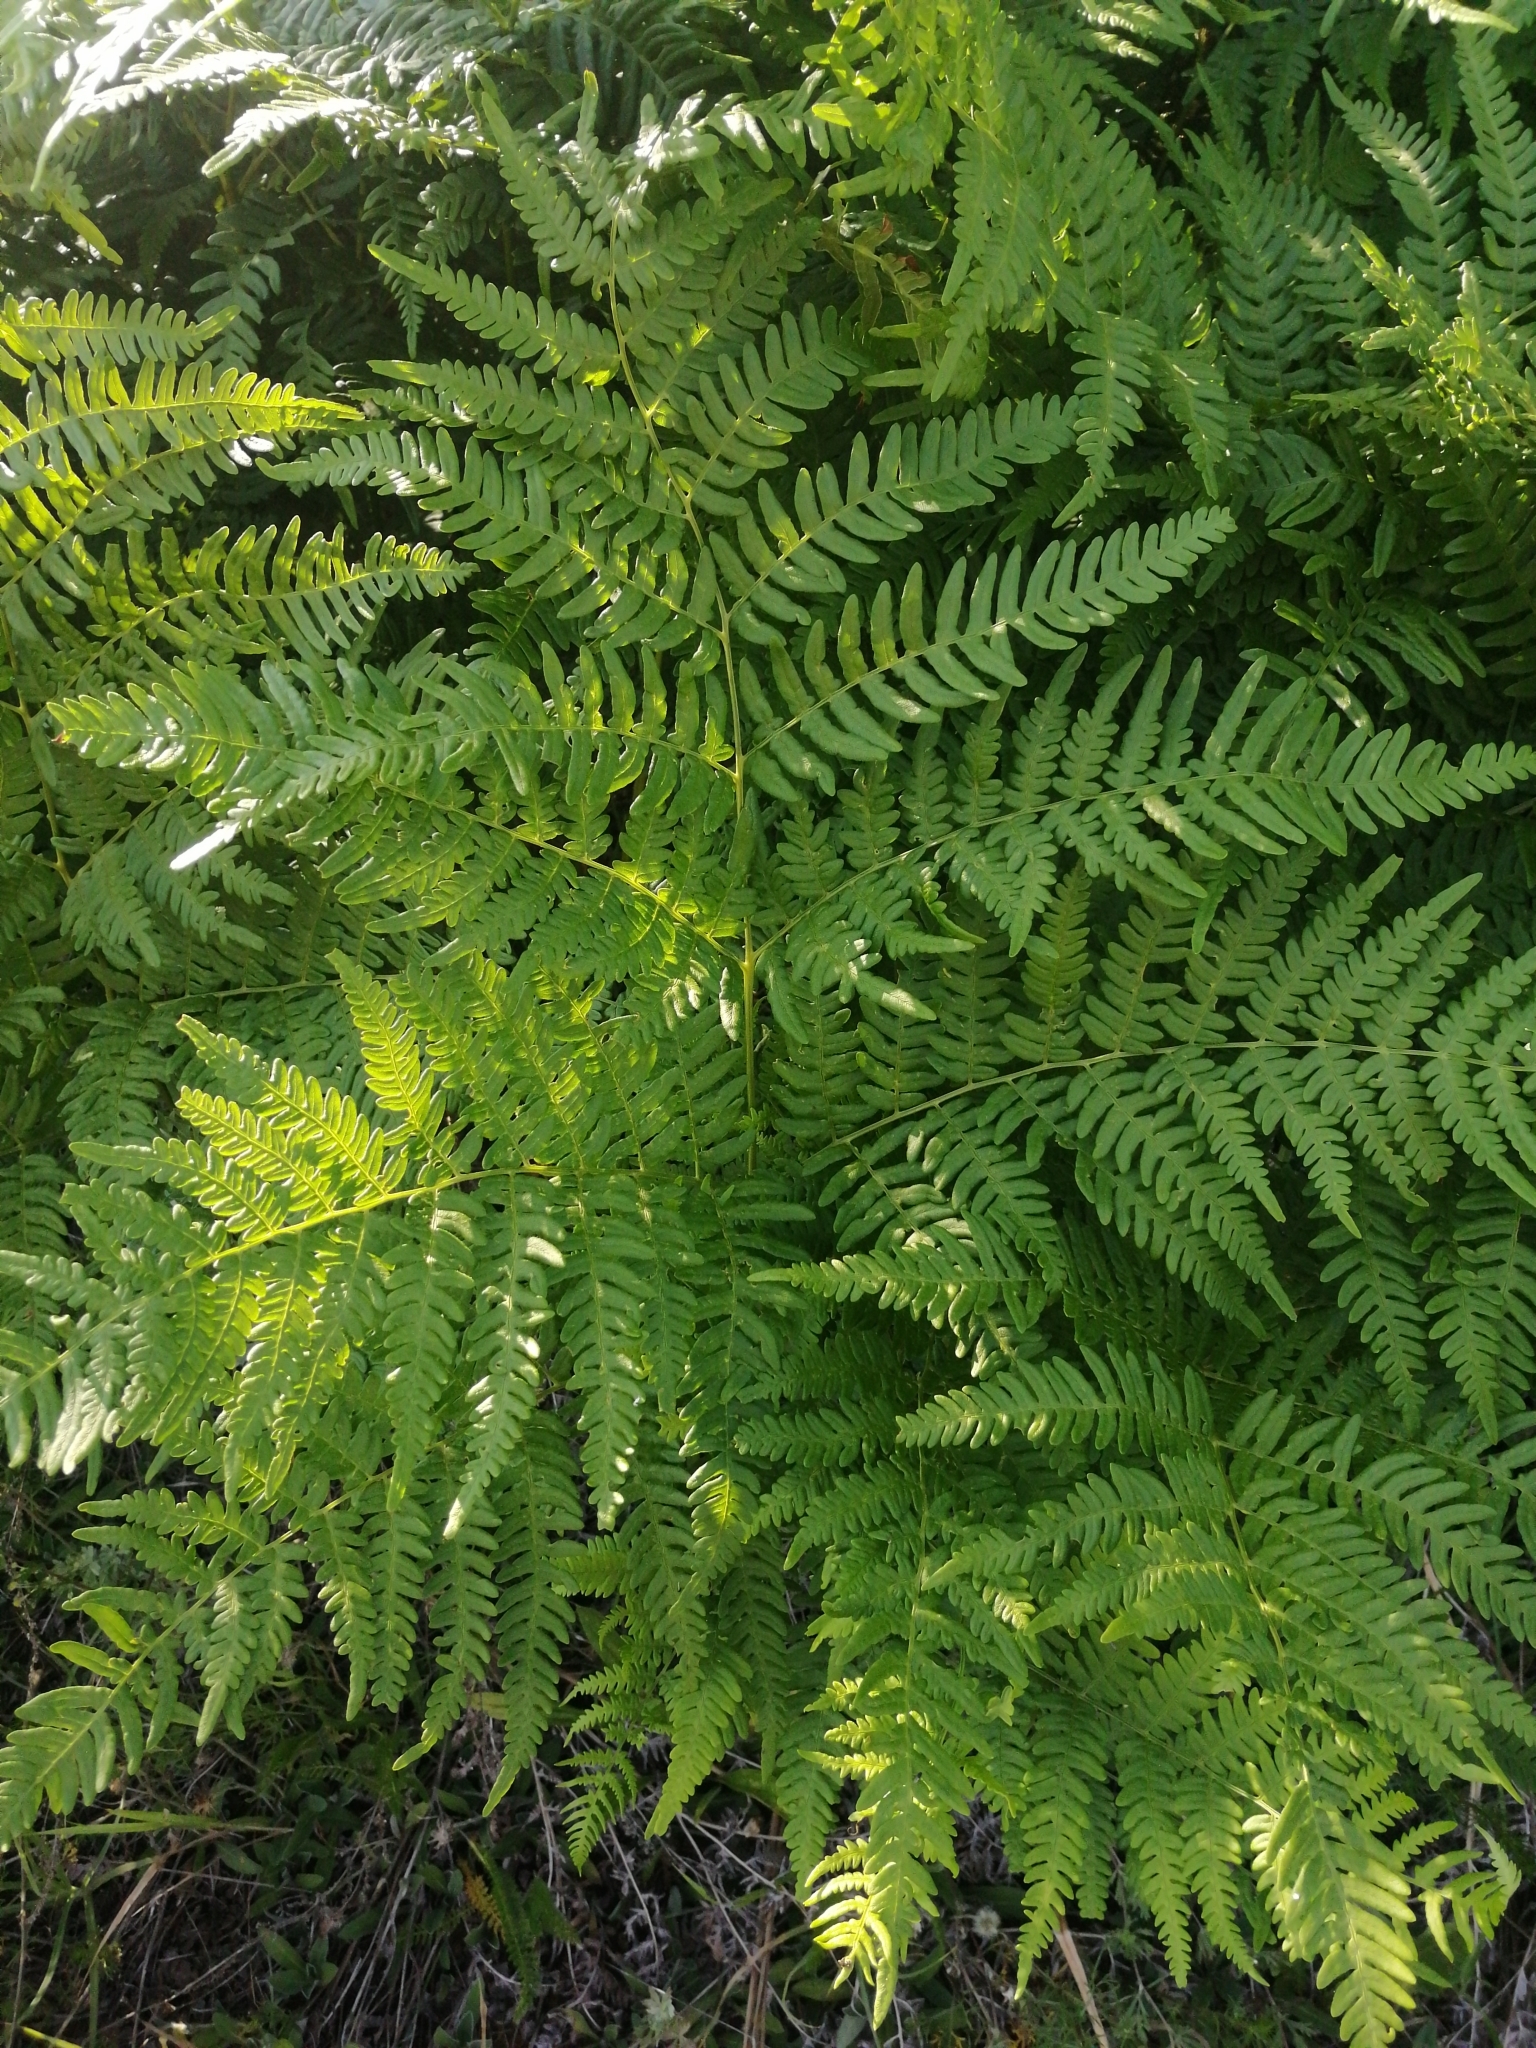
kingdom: Plantae
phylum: Tracheophyta
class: Polypodiopsida
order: Polypodiales
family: Dennstaedtiaceae
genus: Pteridium
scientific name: Pteridium aquilinum
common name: Bracken
